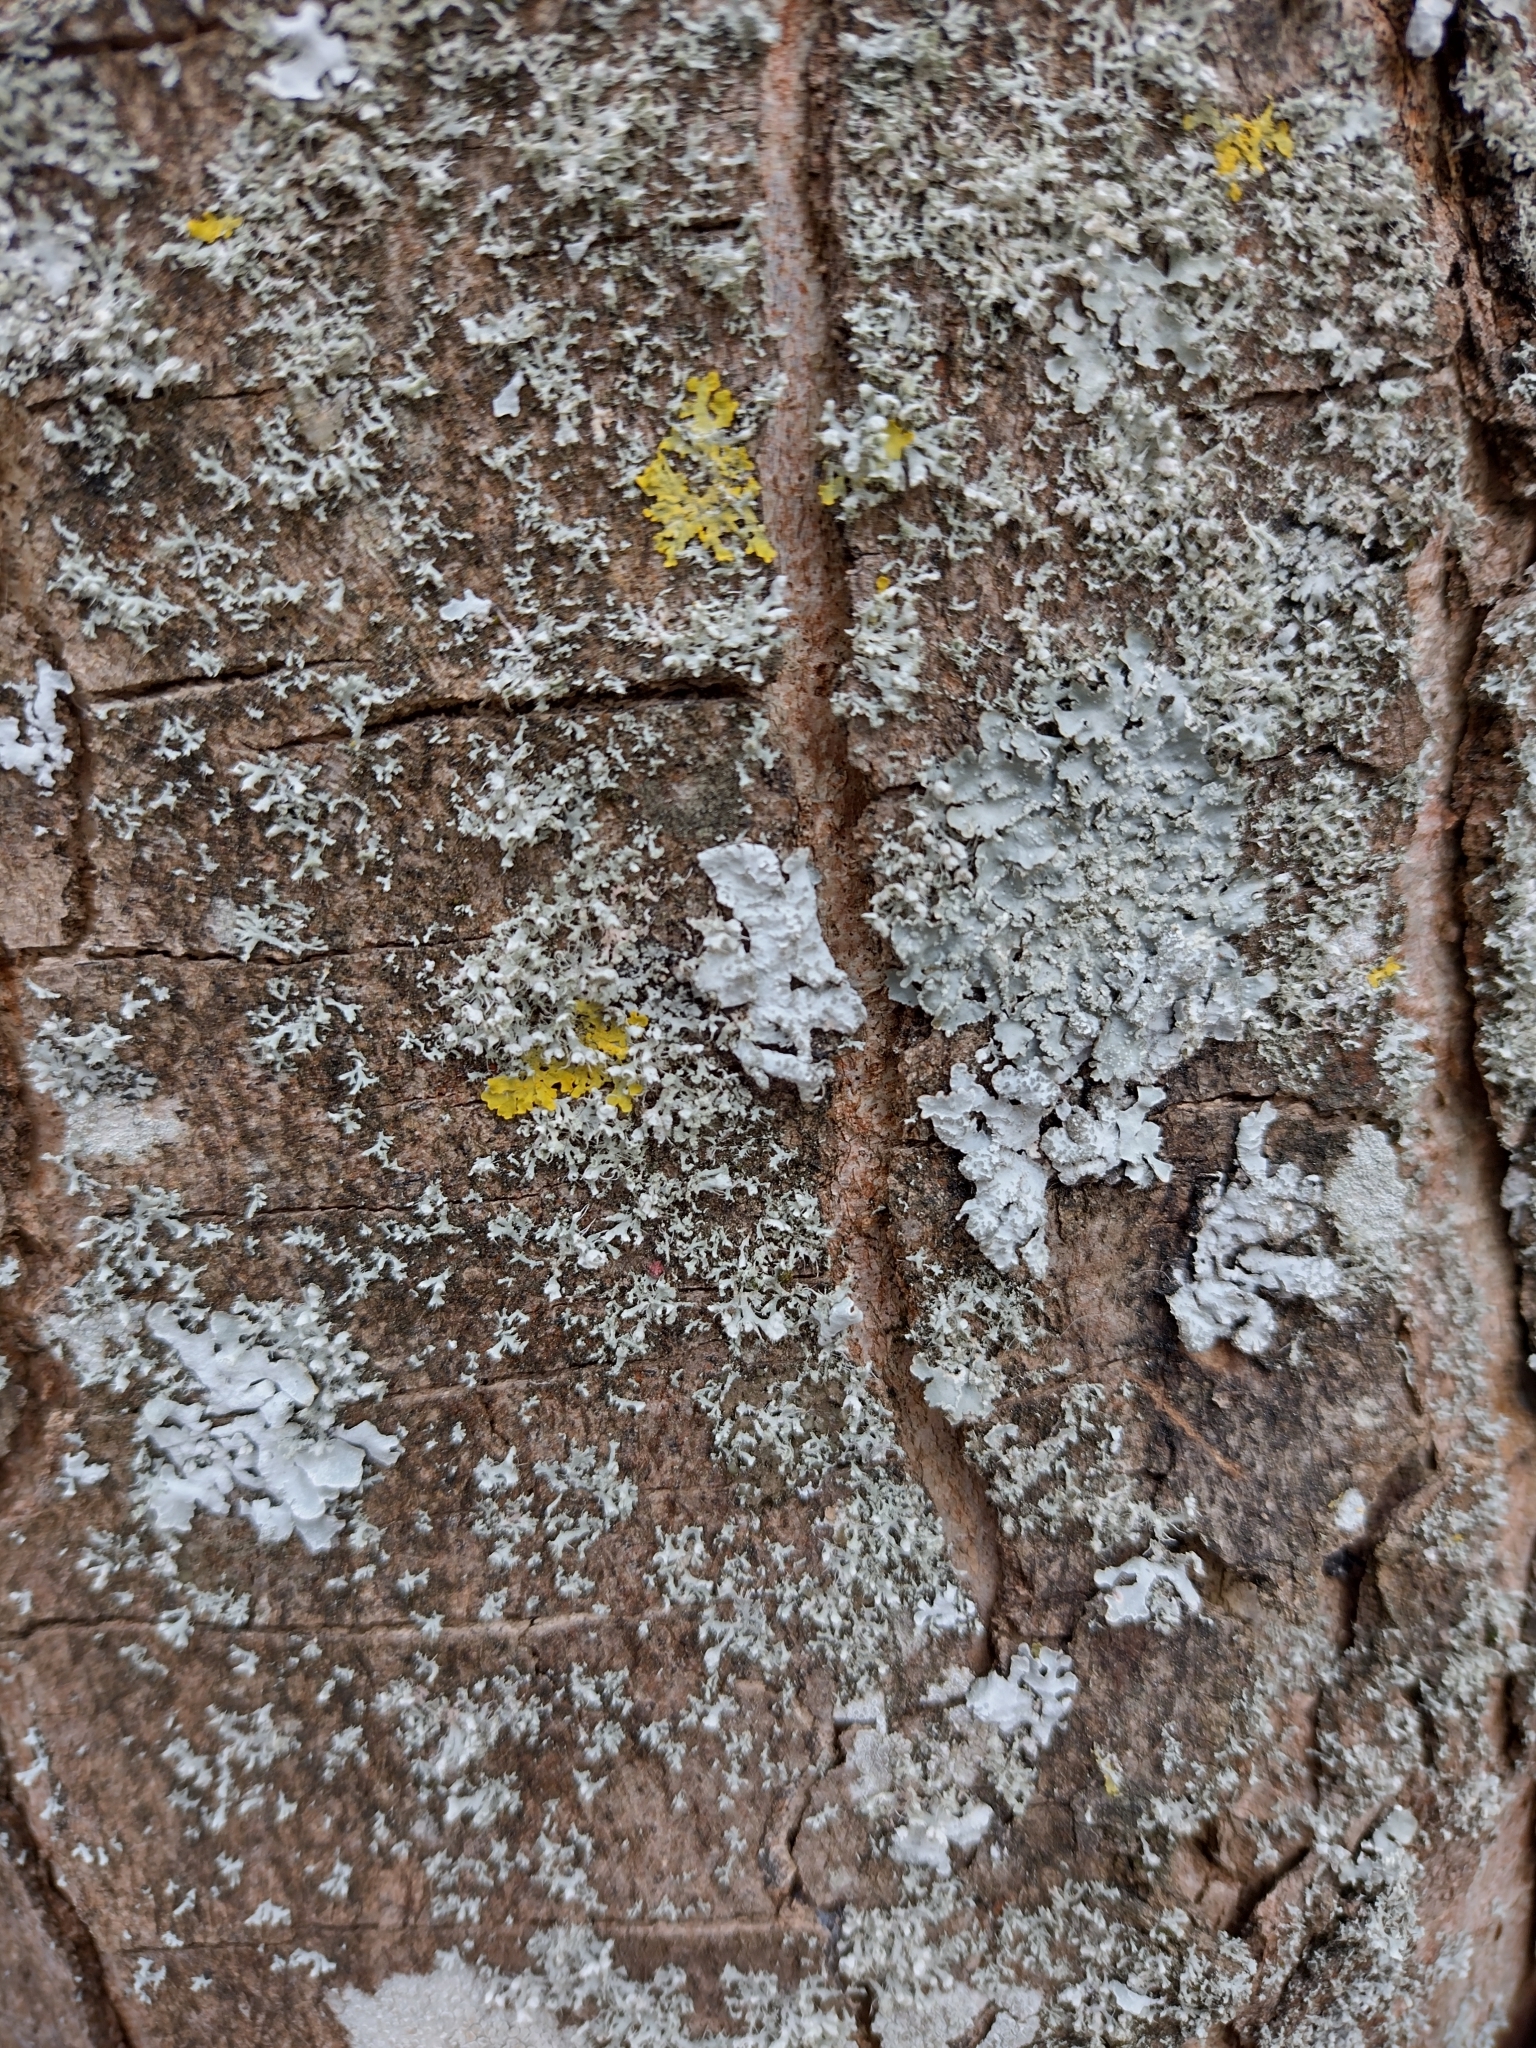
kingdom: Fungi
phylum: Ascomycota
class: Lecanoromycetes
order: Caliciales
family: Physciaceae
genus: Physcia
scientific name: Physcia adscendens
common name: Hooded rosette lichen
